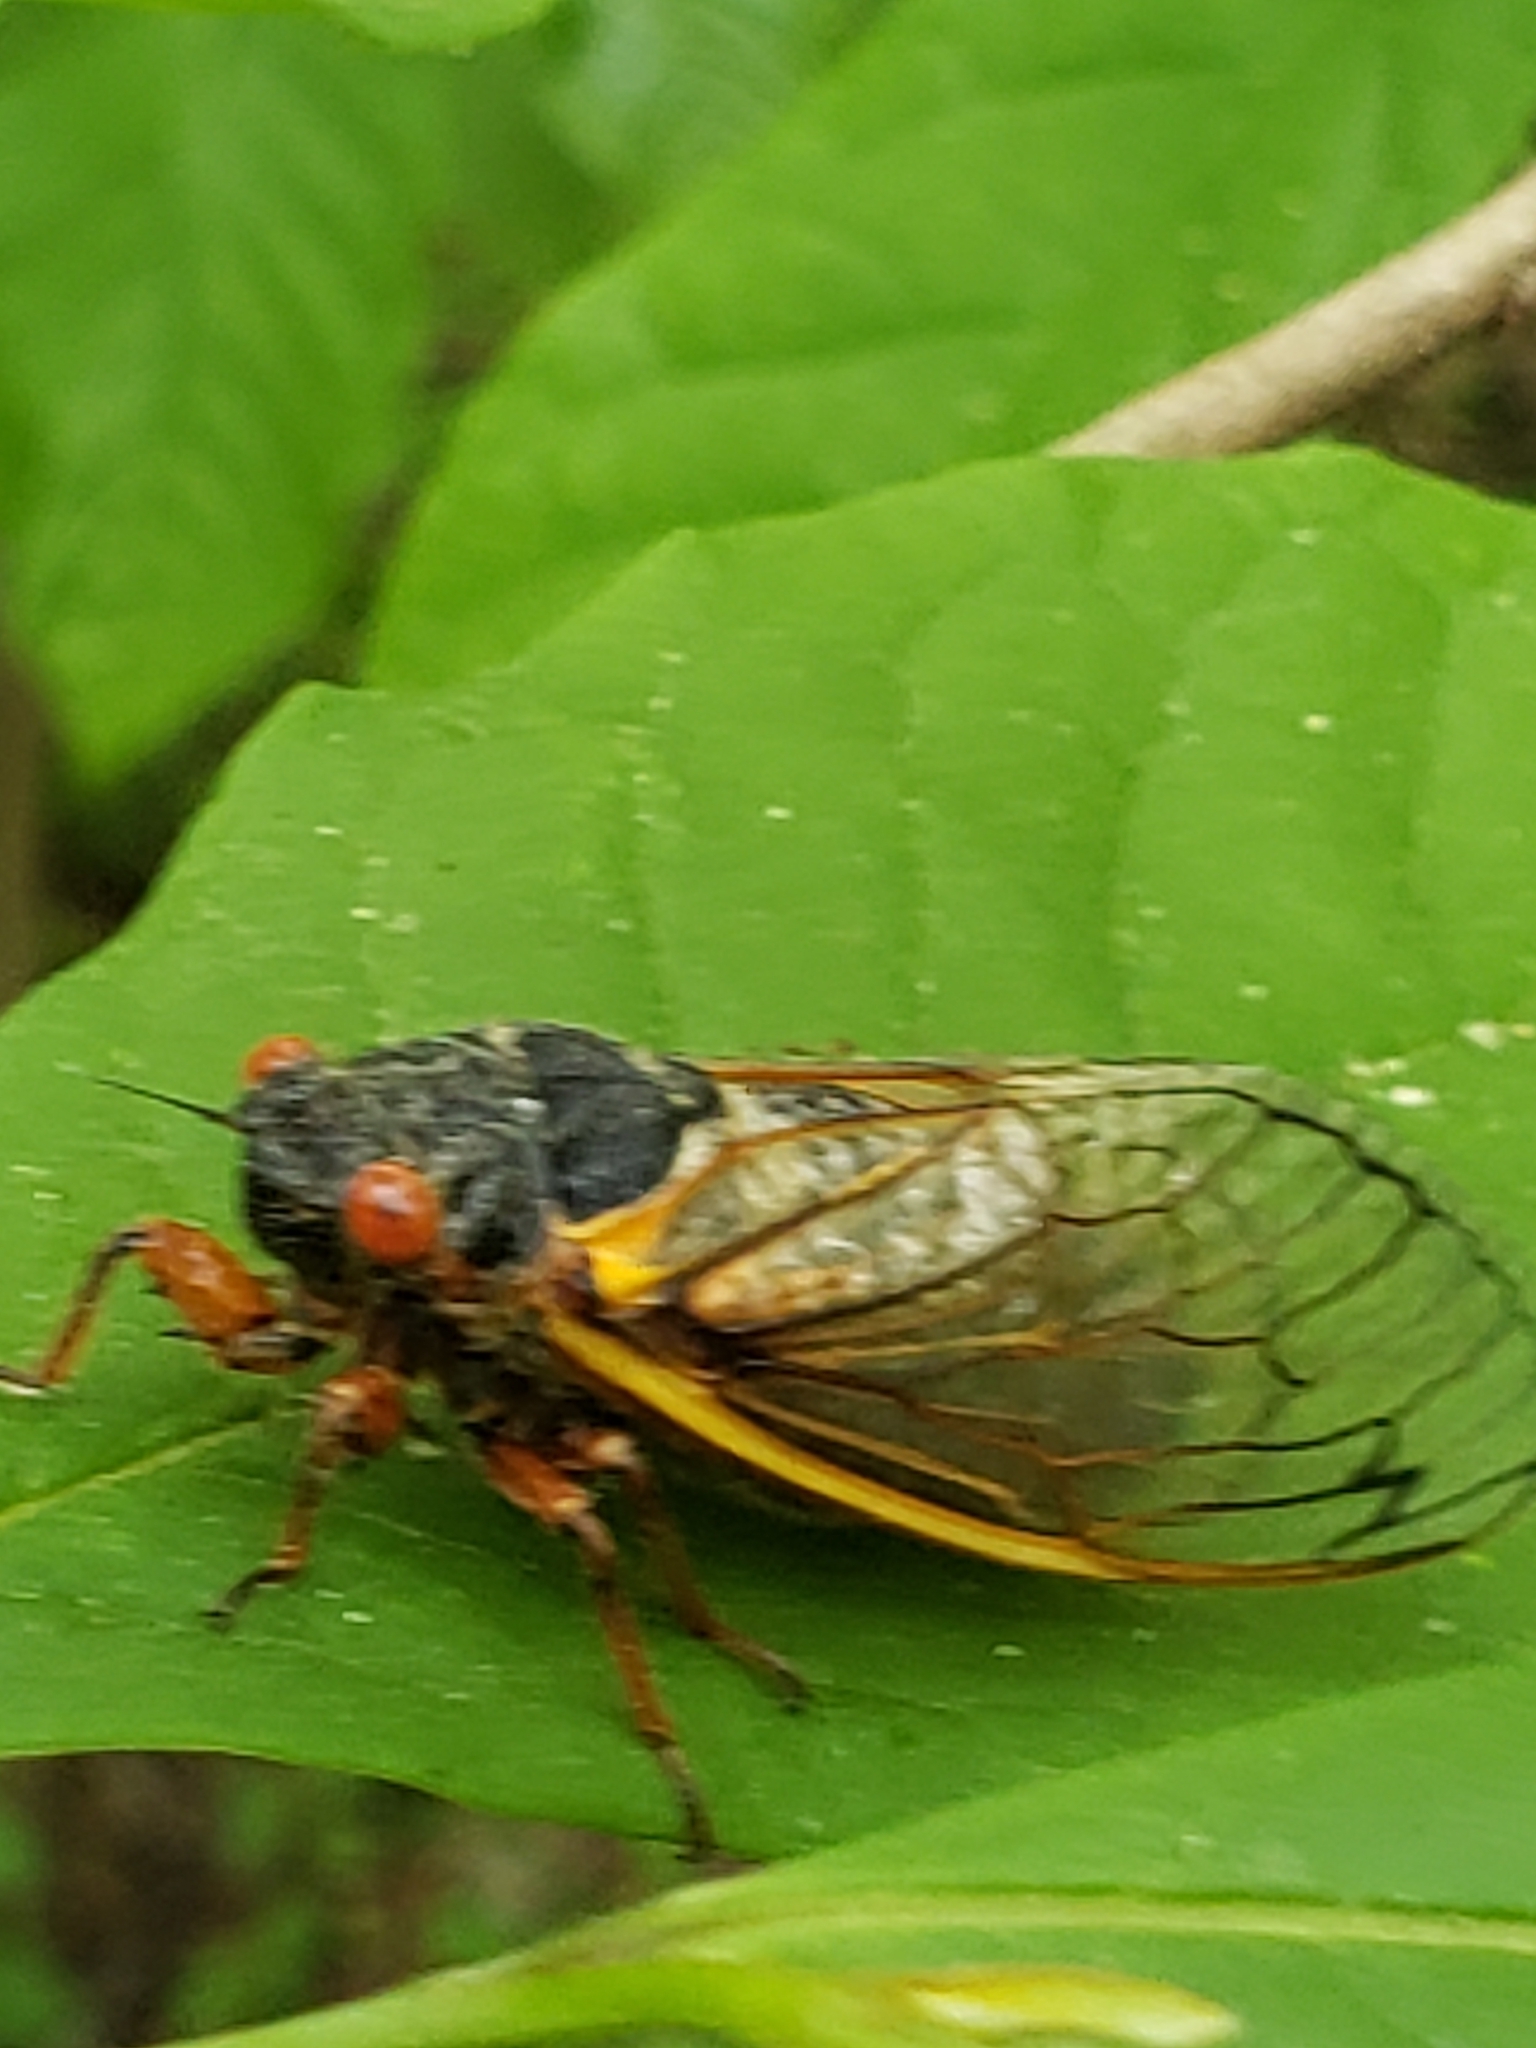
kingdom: Animalia
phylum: Arthropoda
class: Insecta
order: Hemiptera
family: Cicadidae
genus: Magicicada
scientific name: Magicicada septendecim
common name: Periodical cicada
